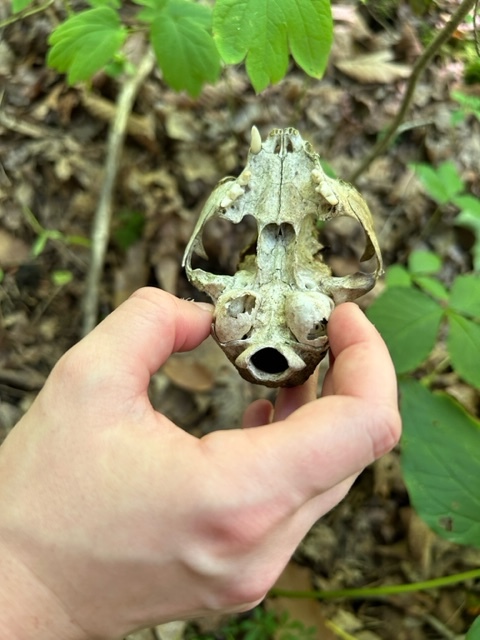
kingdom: Animalia
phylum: Chordata
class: Mammalia
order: Carnivora
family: Felidae
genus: Felis
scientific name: Felis catus
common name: Domestic cat
